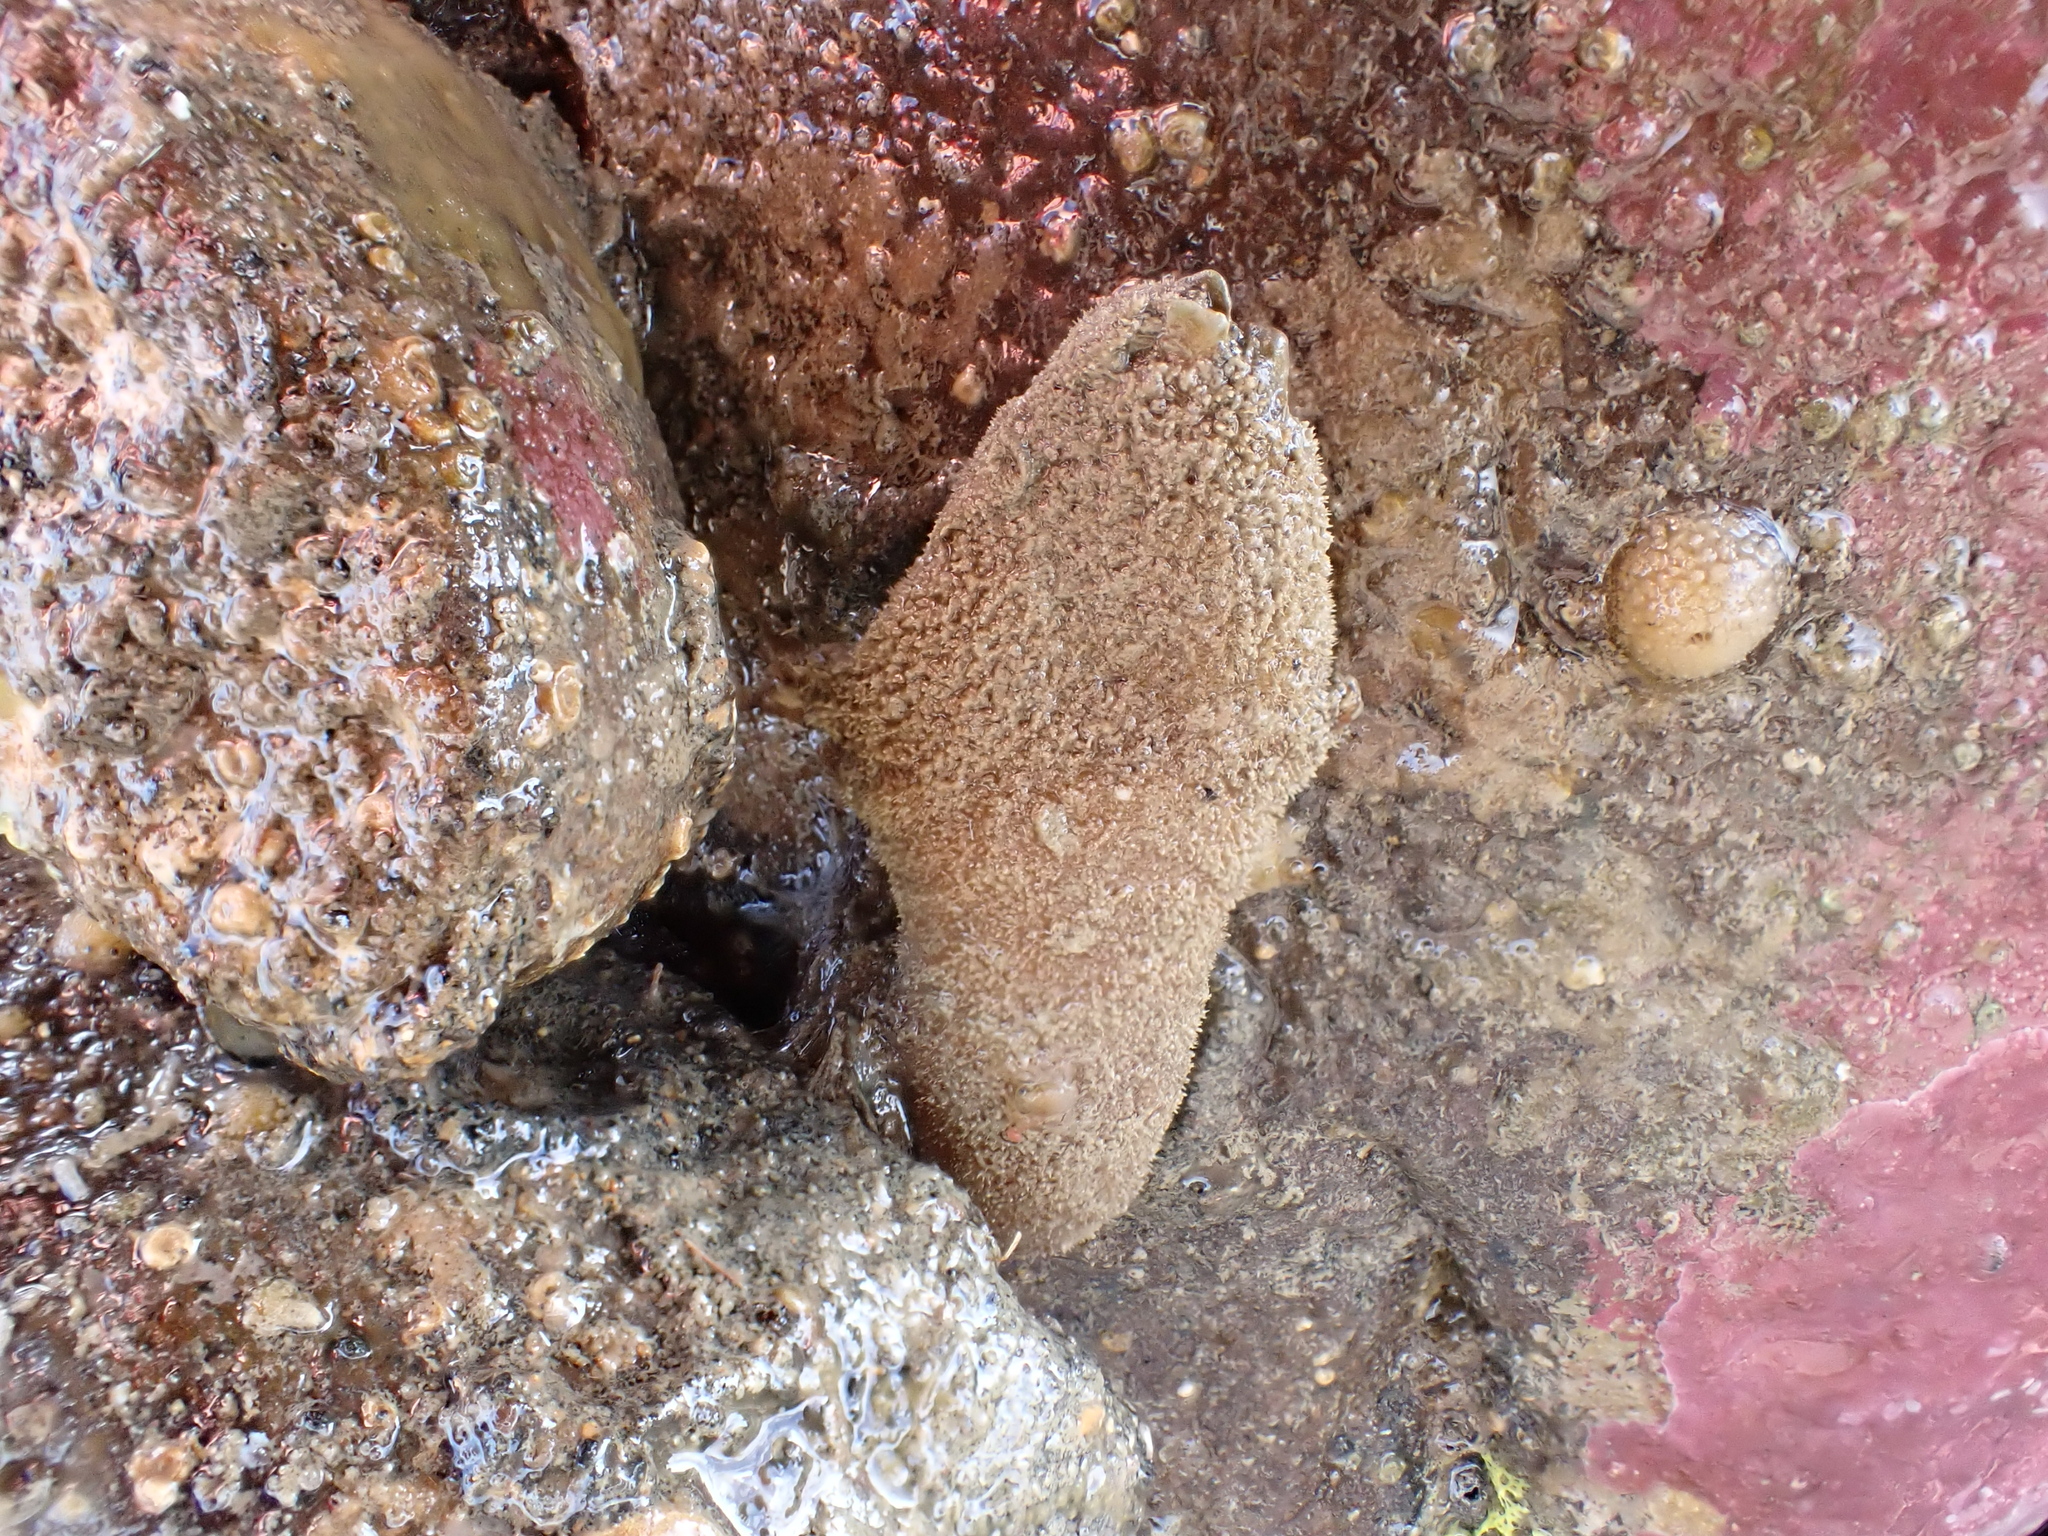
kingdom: Animalia
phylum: Arthropoda
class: Maxillopoda
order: Pedunculata
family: Calanticidae
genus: Calantica
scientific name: Calantica villosa
